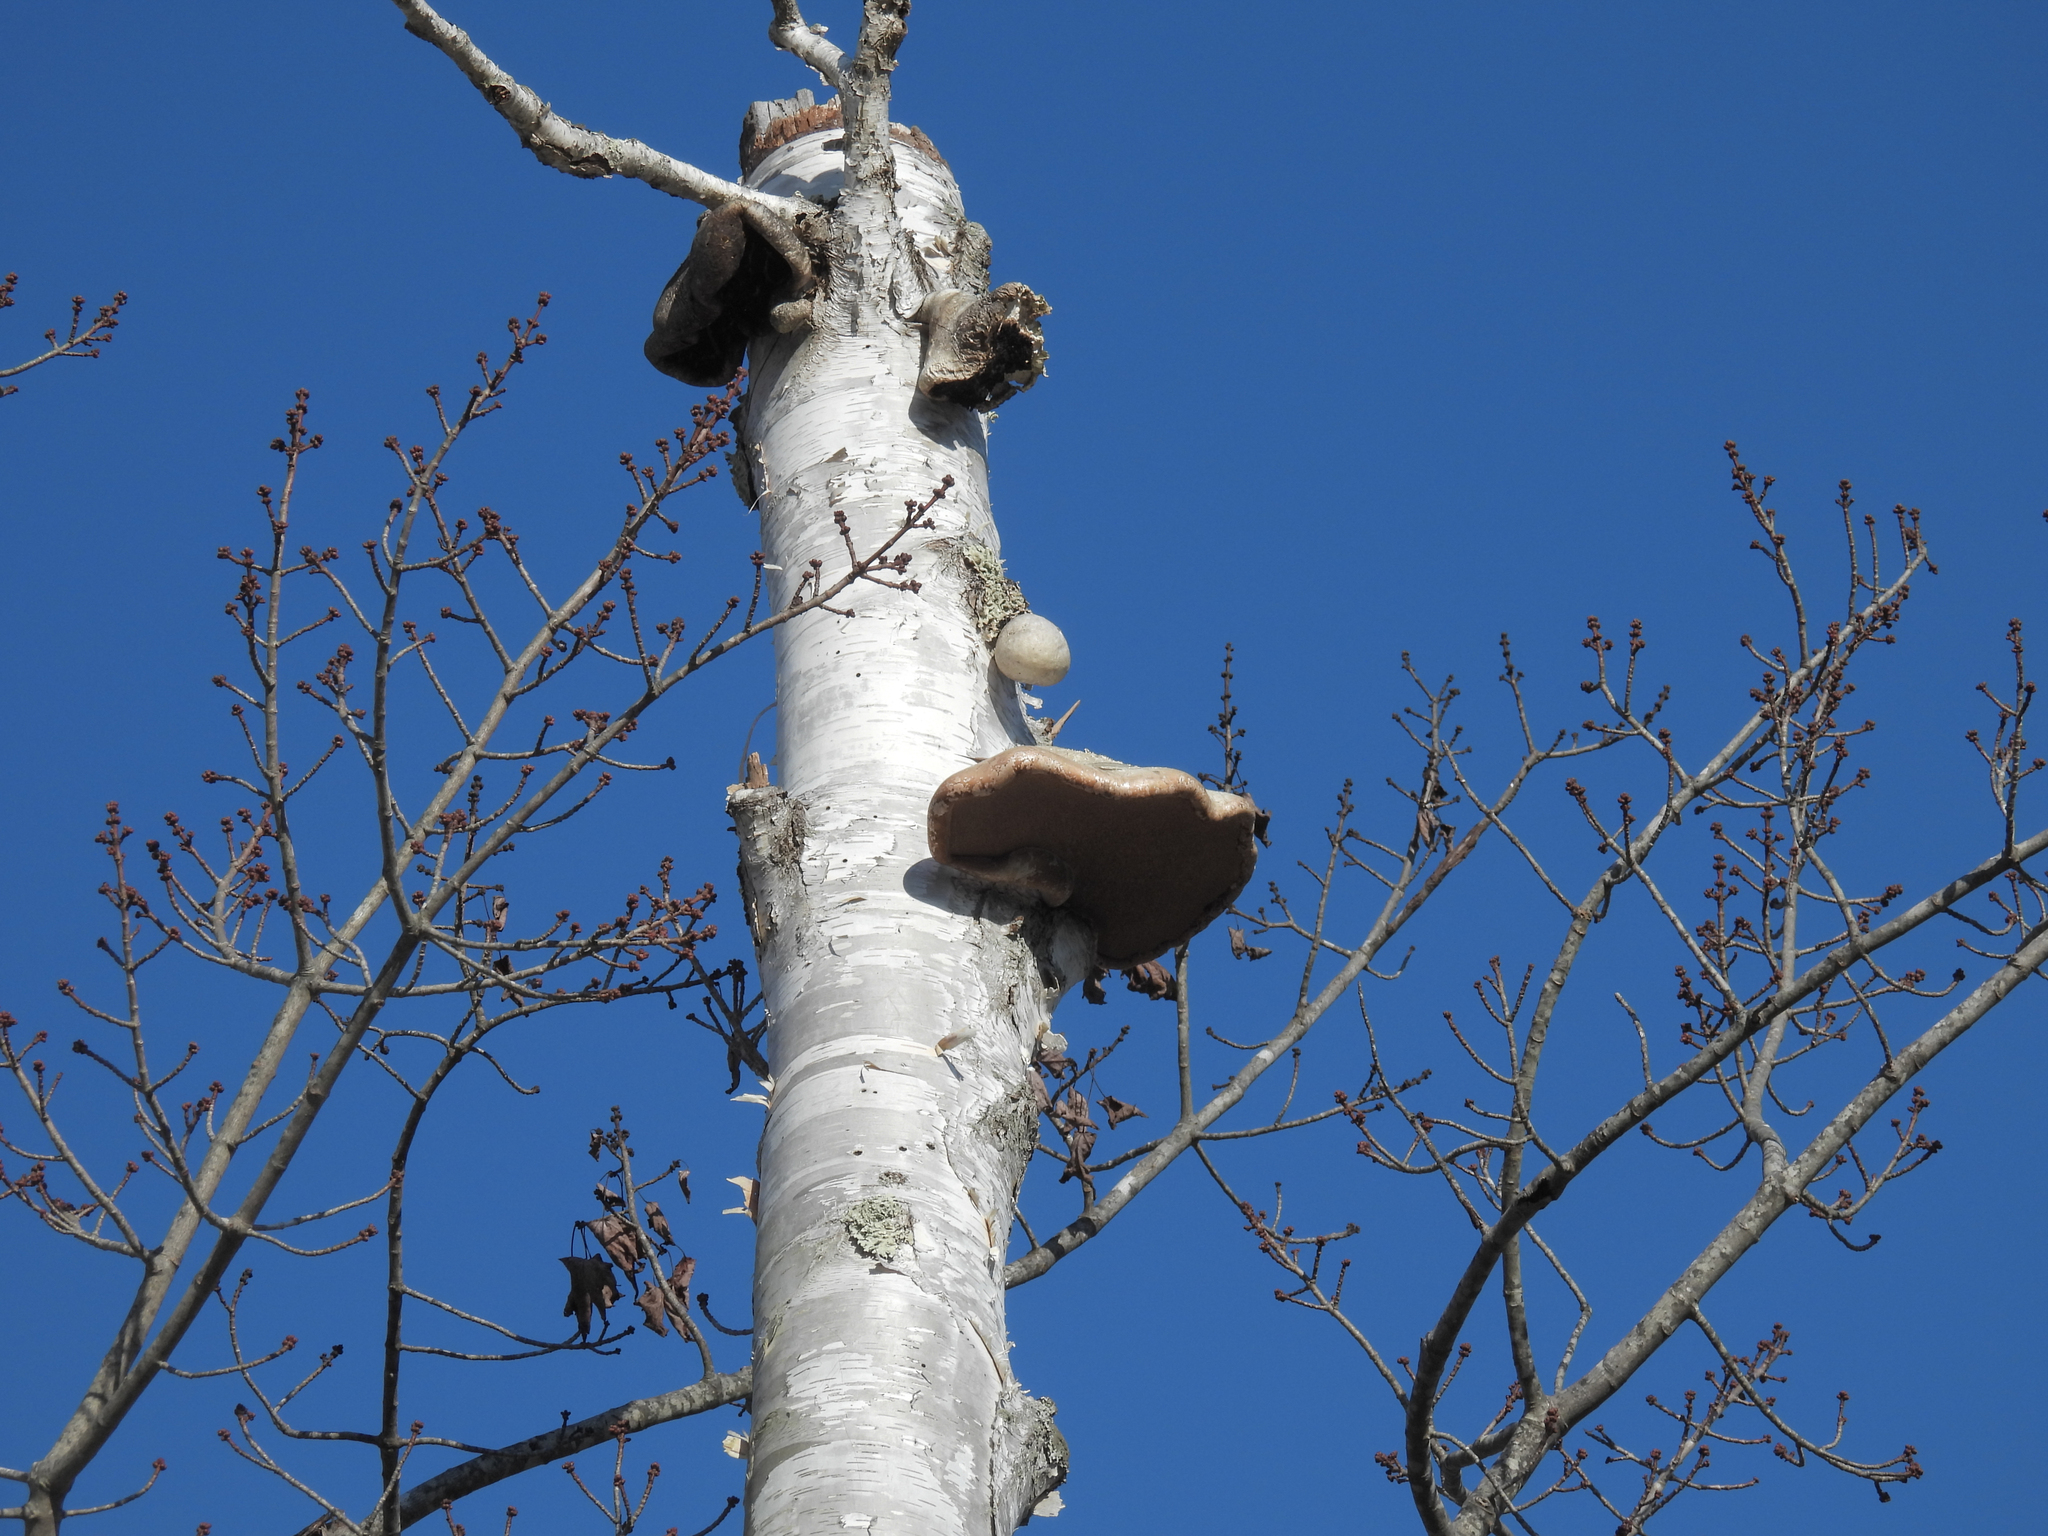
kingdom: Fungi
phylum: Basidiomycota
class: Agaricomycetes
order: Polyporales
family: Fomitopsidaceae
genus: Fomitopsis
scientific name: Fomitopsis betulina
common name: Birch polypore
